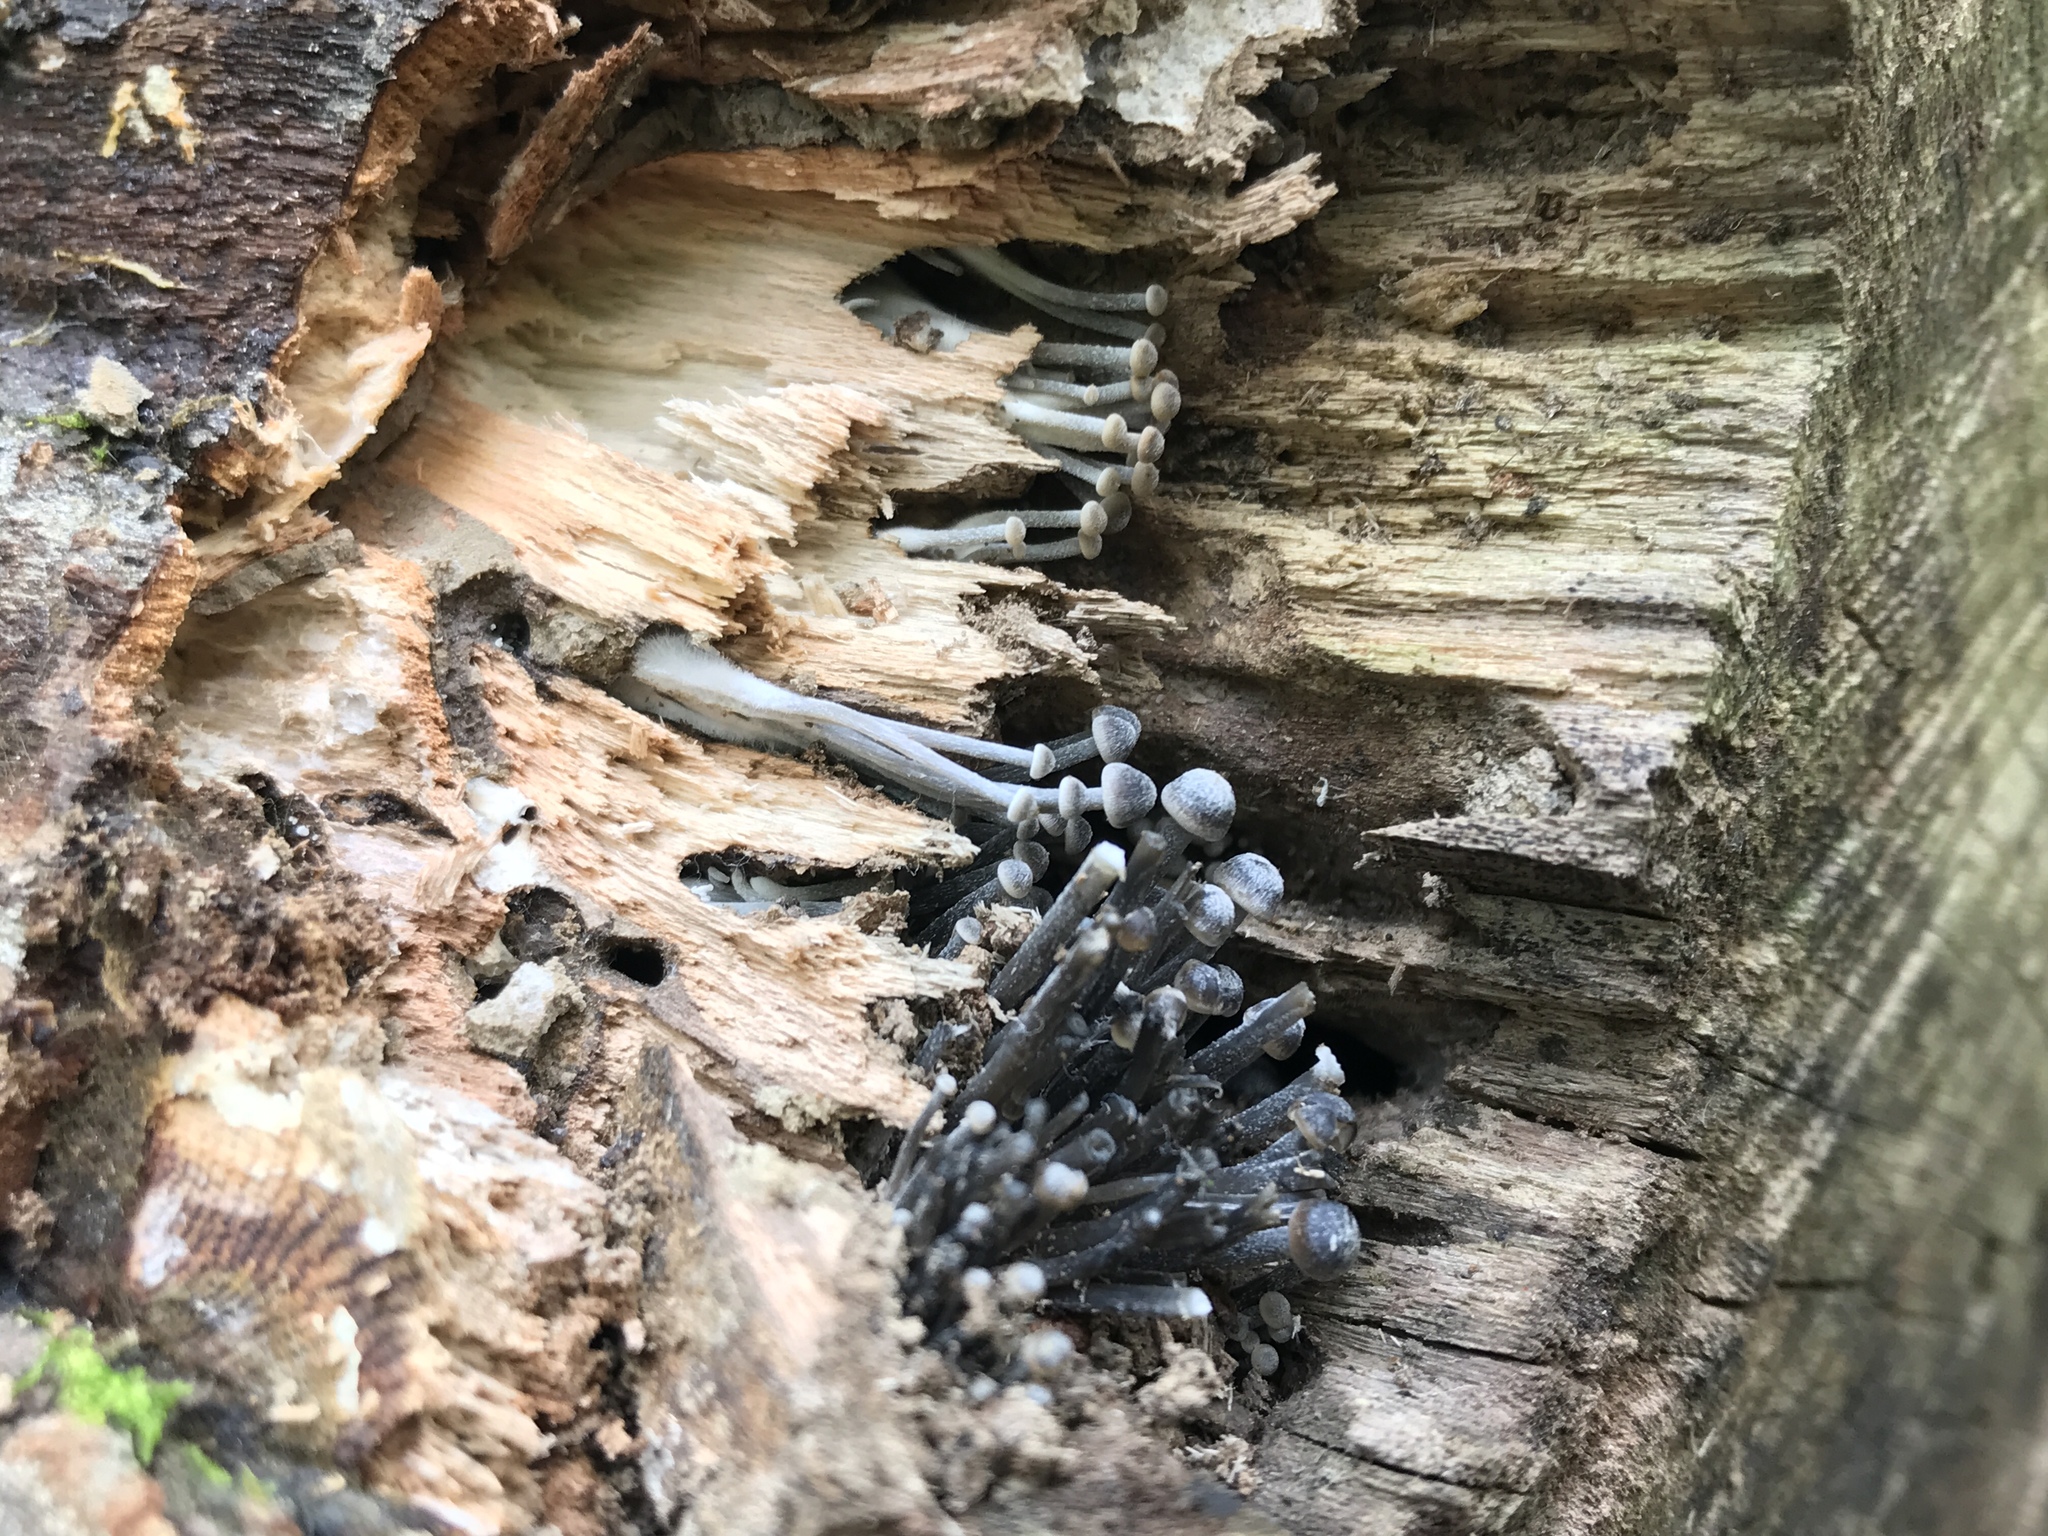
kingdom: Fungi
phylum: Basidiomycota
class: Agaricomycetes
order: Agaricales
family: Mycenaceae
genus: Mycena
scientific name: Mycena semivestipes
